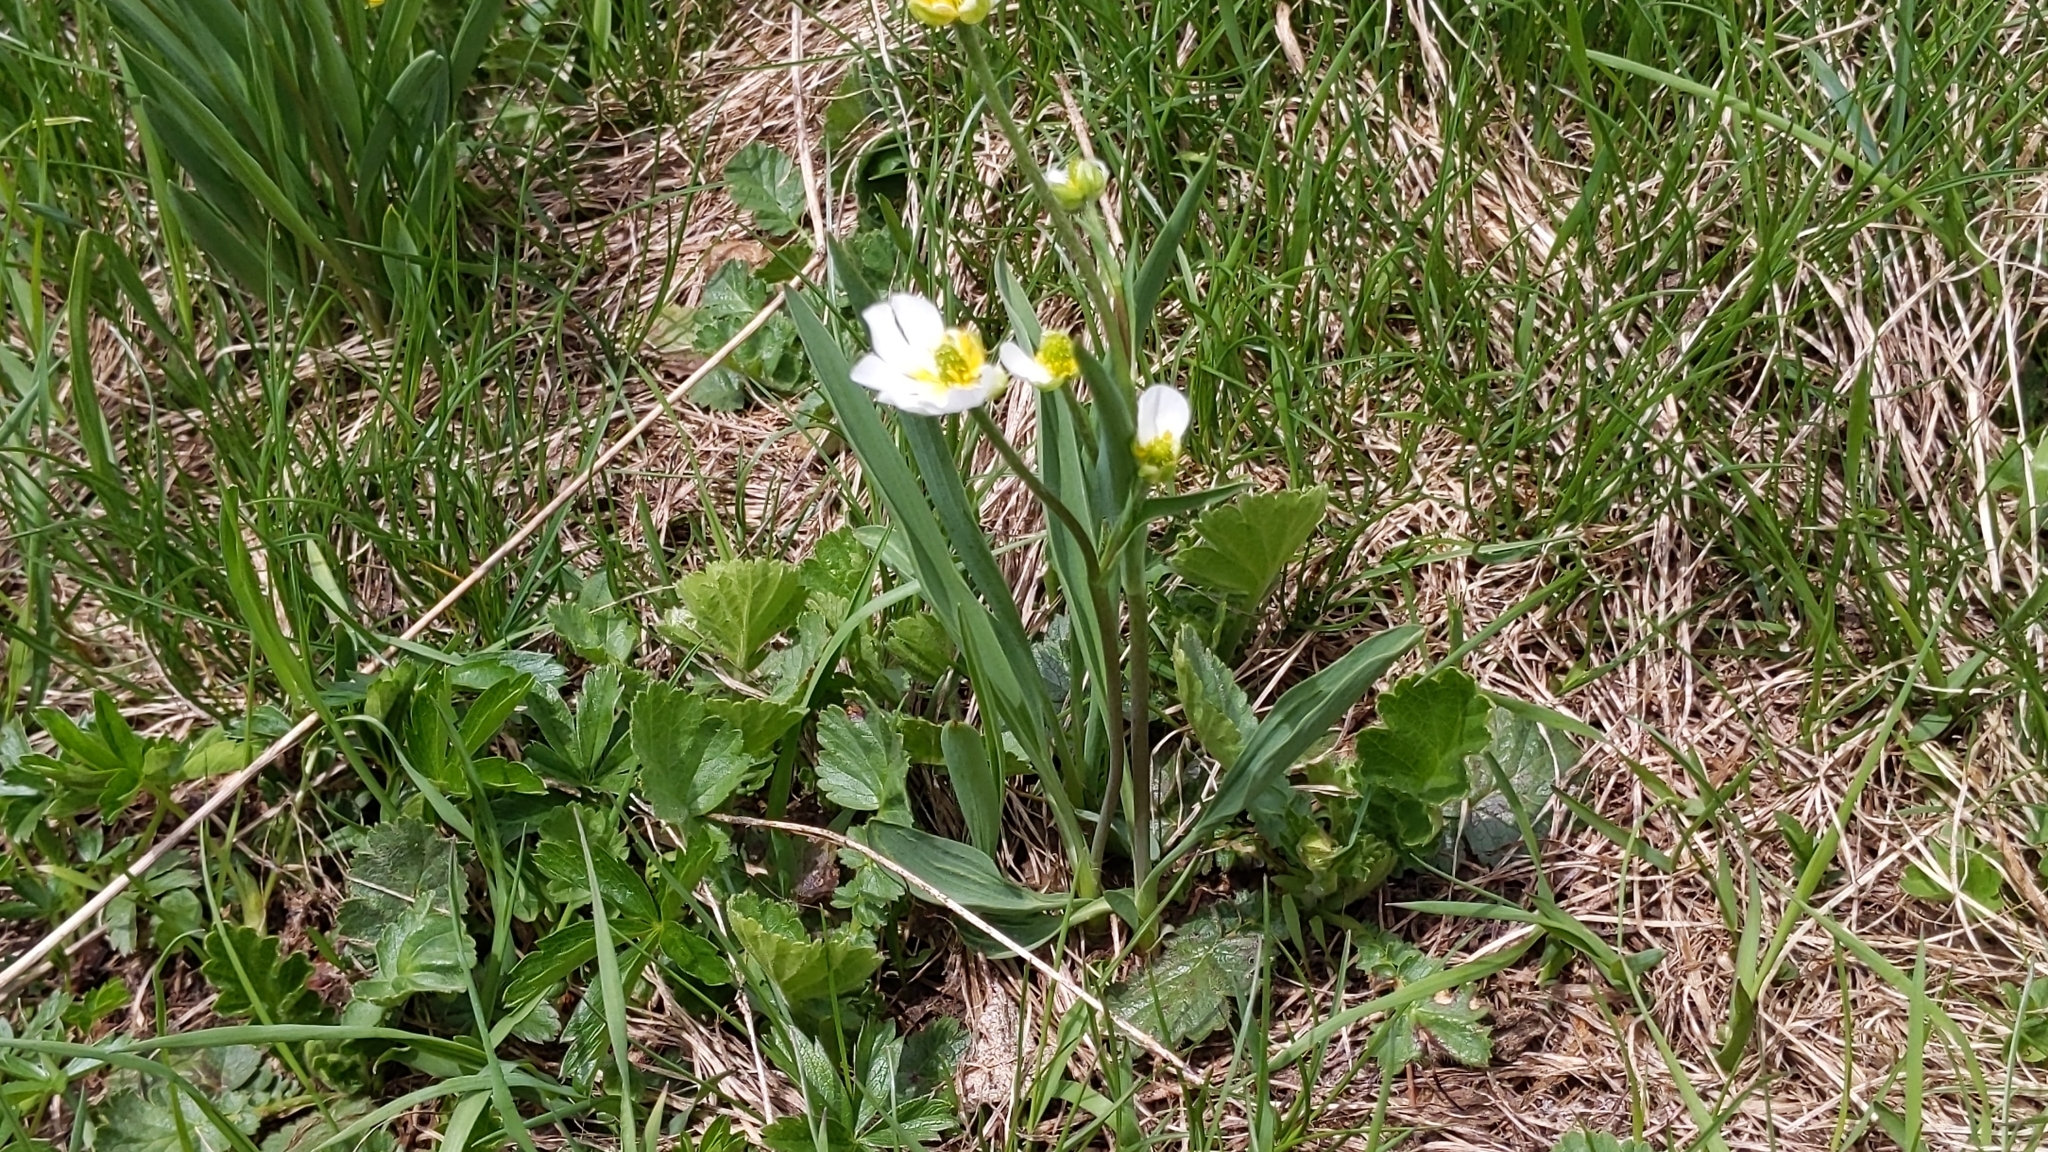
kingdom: Plantae
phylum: Tracheophyta
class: Magnoliopsida
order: Ranunculales
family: Ranunculaceae
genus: Ranunculus
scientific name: Ranunculus kuepferi
